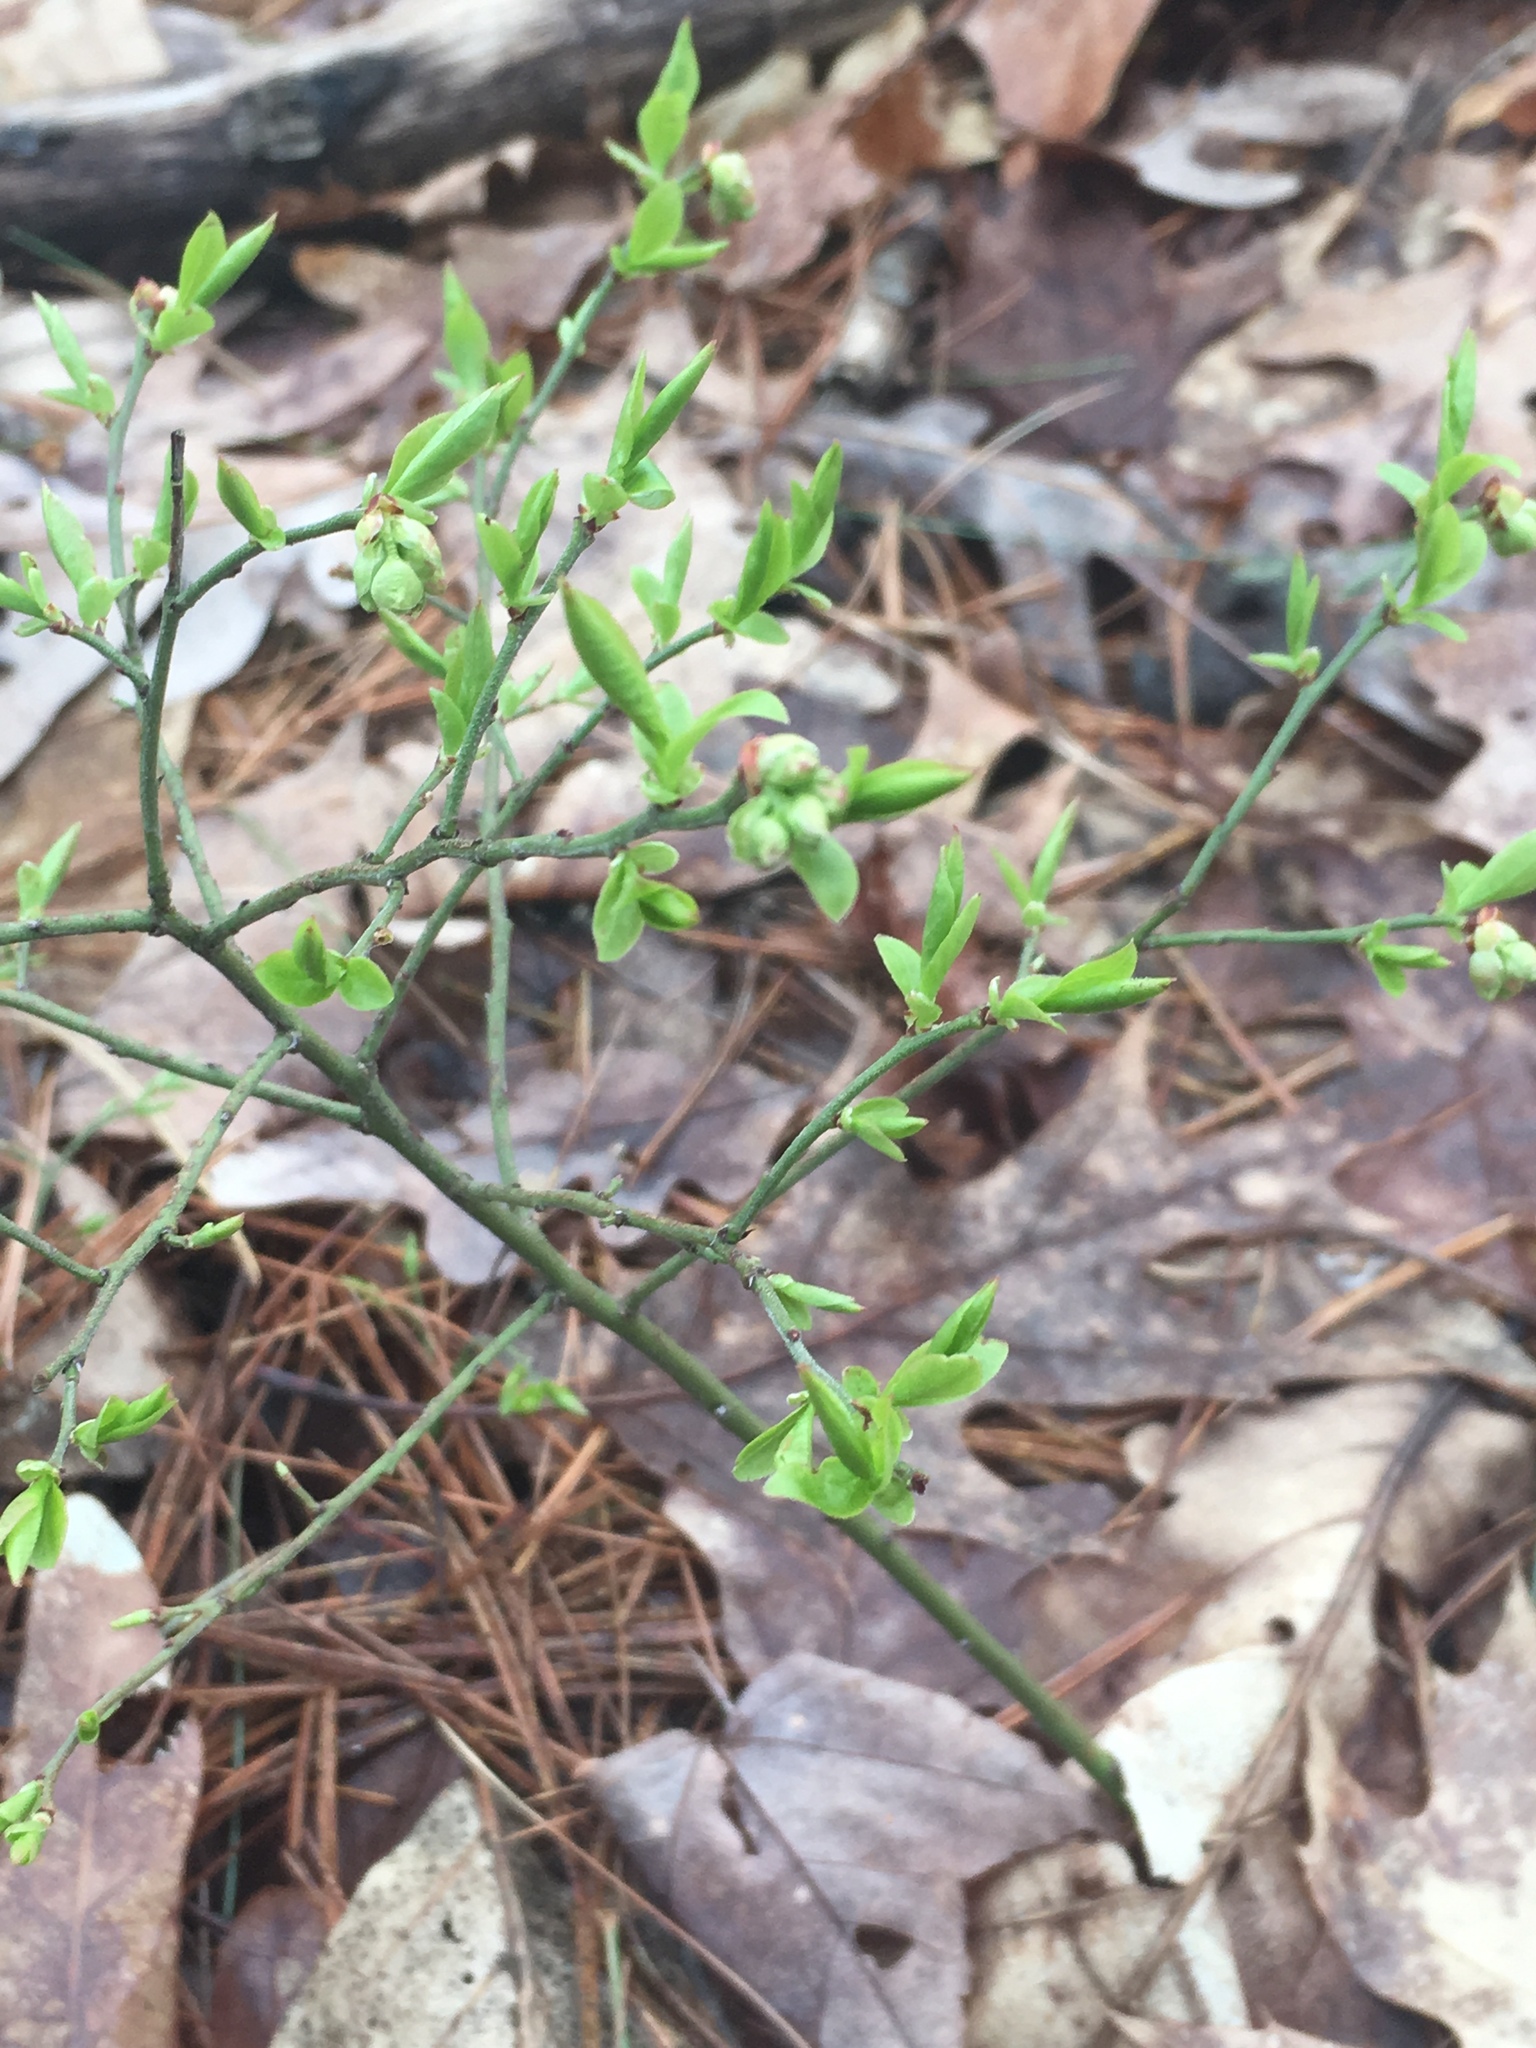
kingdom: Plantae
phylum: Tracheophyta
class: Magnoliopsida
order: Ericales
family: Ericaceae
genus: Vaccinium
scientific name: Vaccinium angustifolium
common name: Early lowbush blueberry
